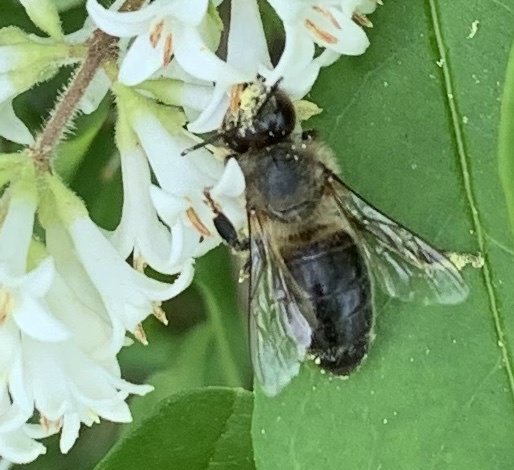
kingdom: Animalia
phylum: Arthropoda
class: Insecta
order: Hymenoptera
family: Apidae
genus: Apis
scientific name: Apis mellifera
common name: Honey bee
